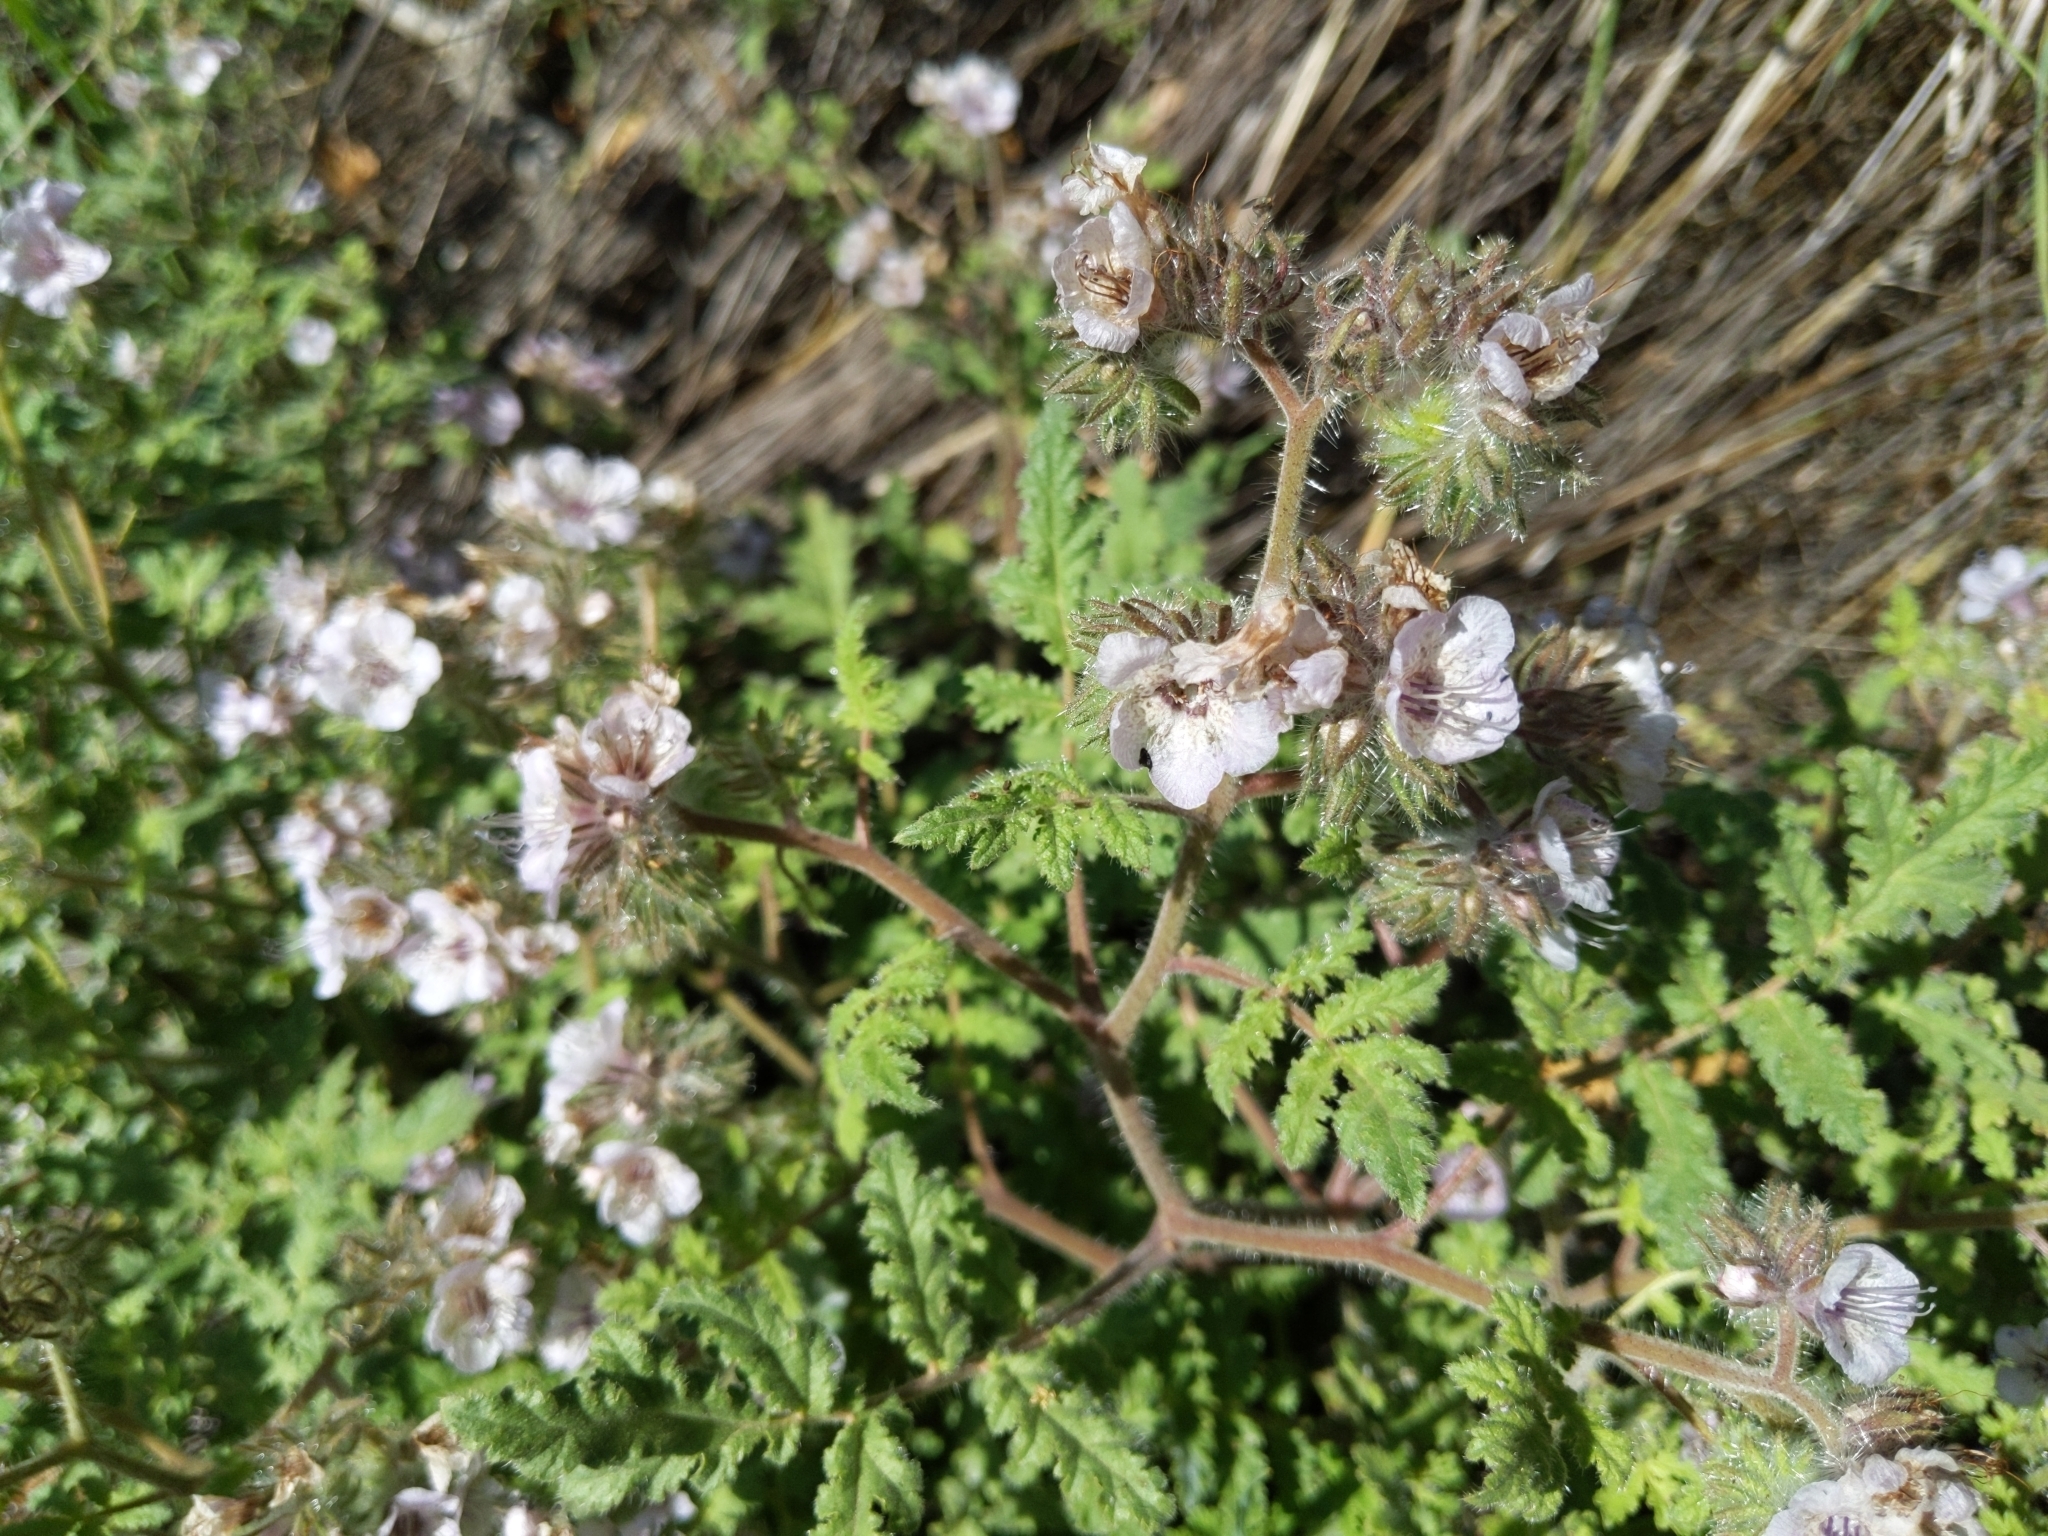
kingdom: Plantae
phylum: Tracheophyta
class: Magnoliopsida
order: Boraginales
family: Hydrophyllaceae
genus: Phacelia
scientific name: Phacelia cicutaria
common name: Caterpillar phacelia
